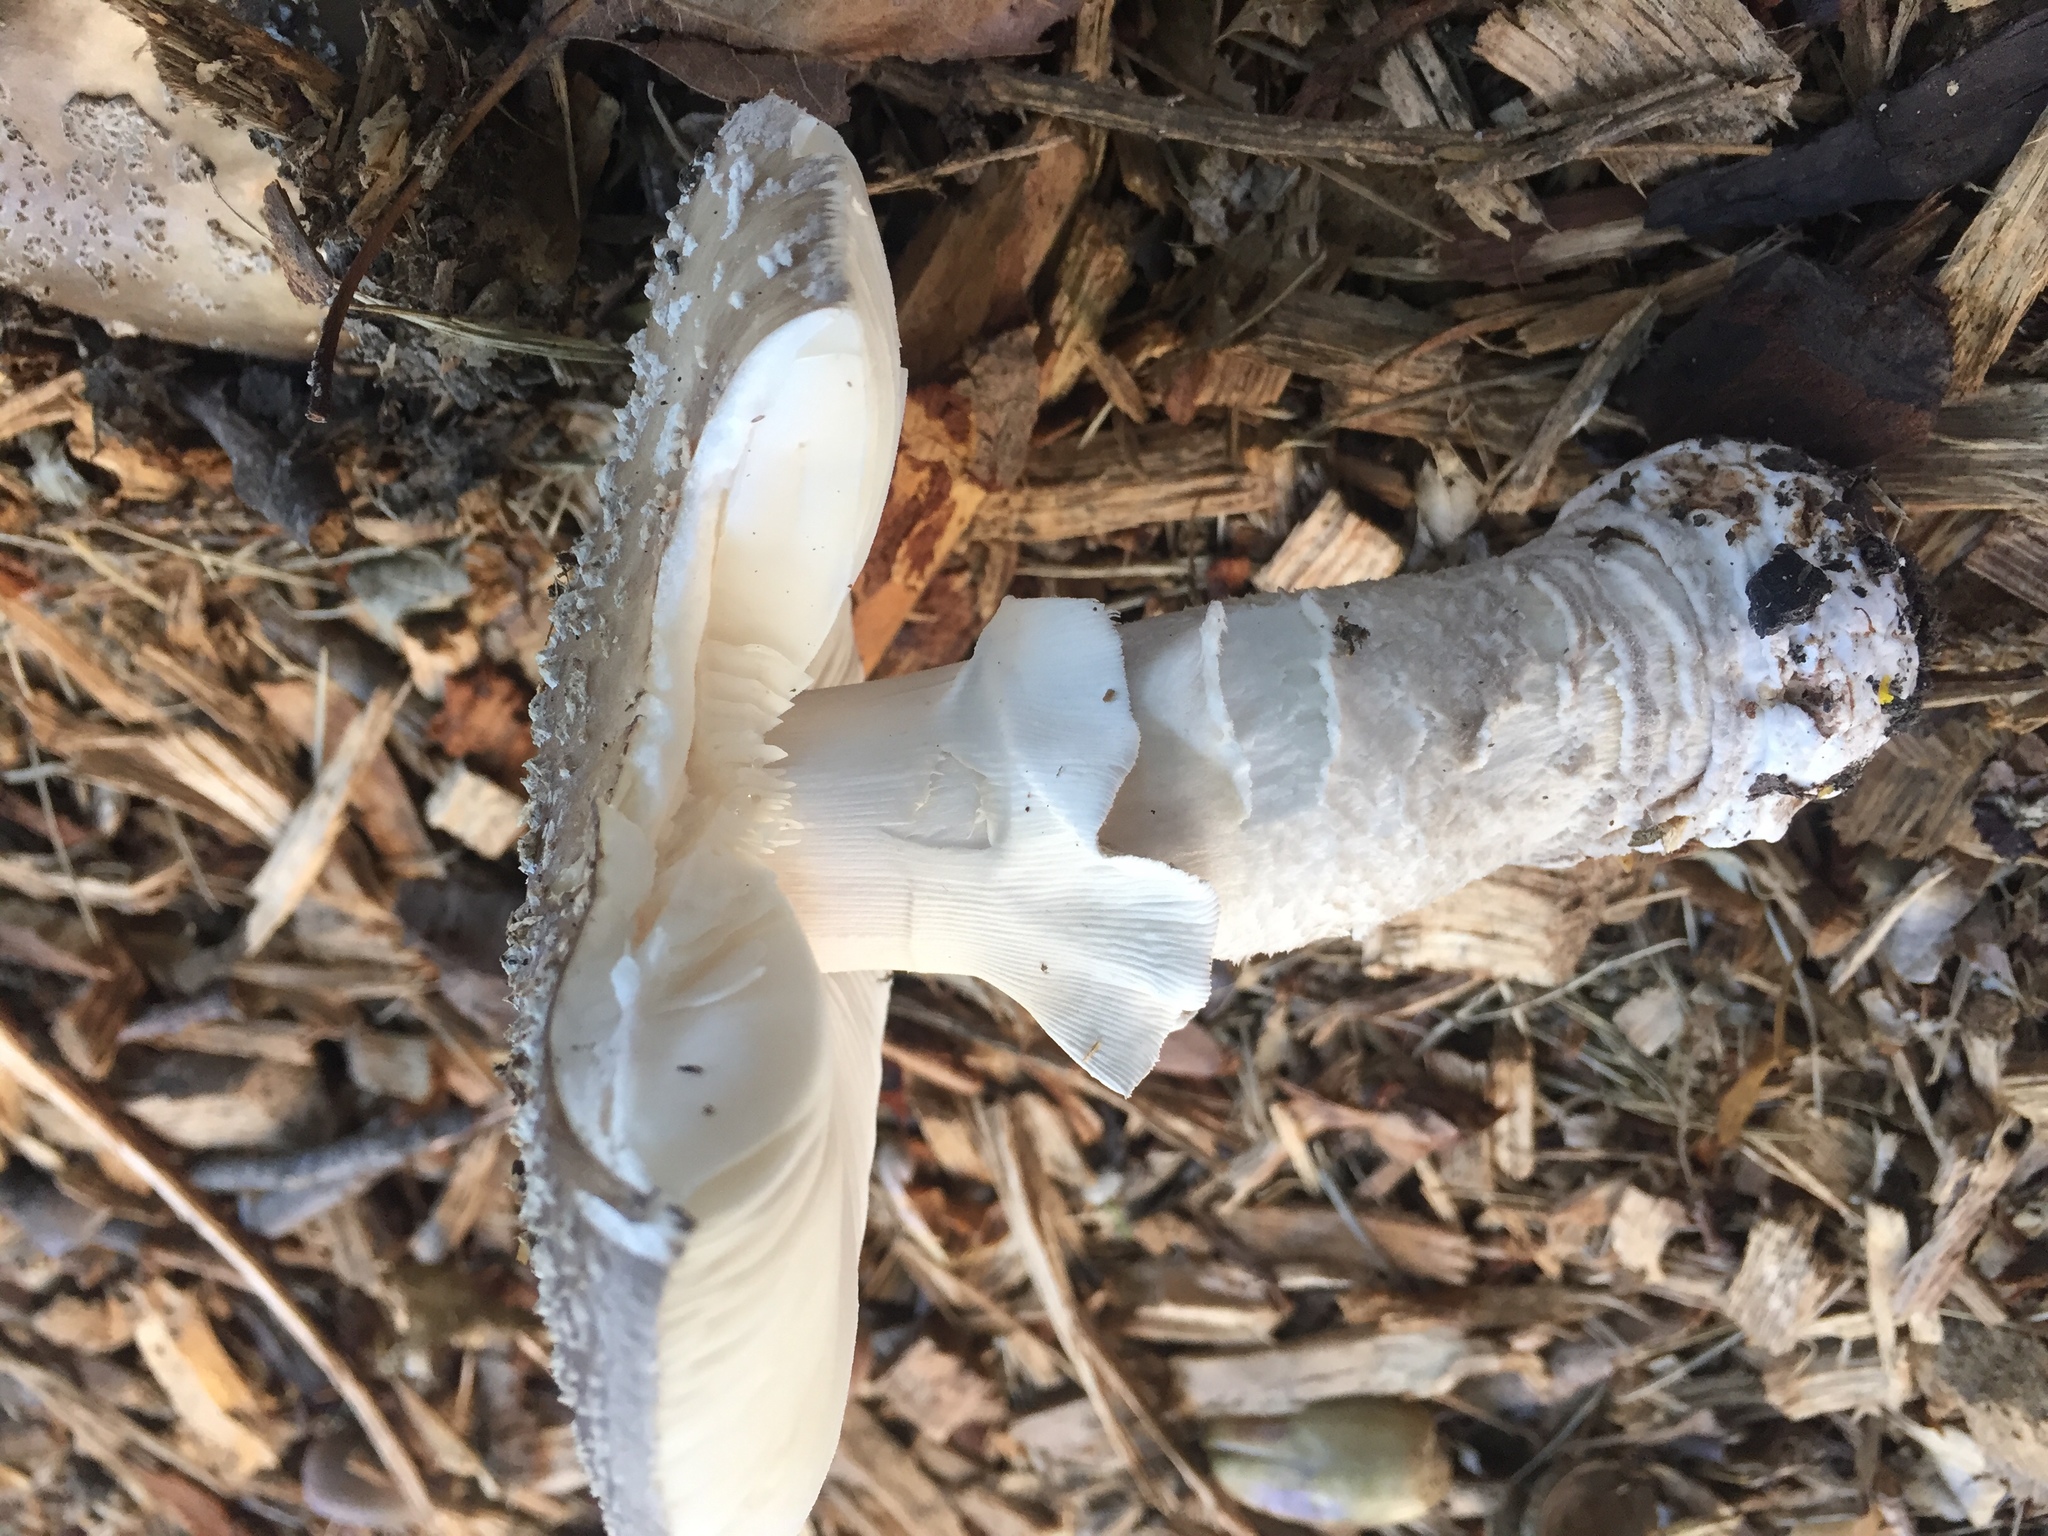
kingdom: Fungi
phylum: Basidiomycota
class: Agaricomycetes
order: Agaricales
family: Amanitaceae
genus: Amanita
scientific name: Amanita excelsa
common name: European false blusher
